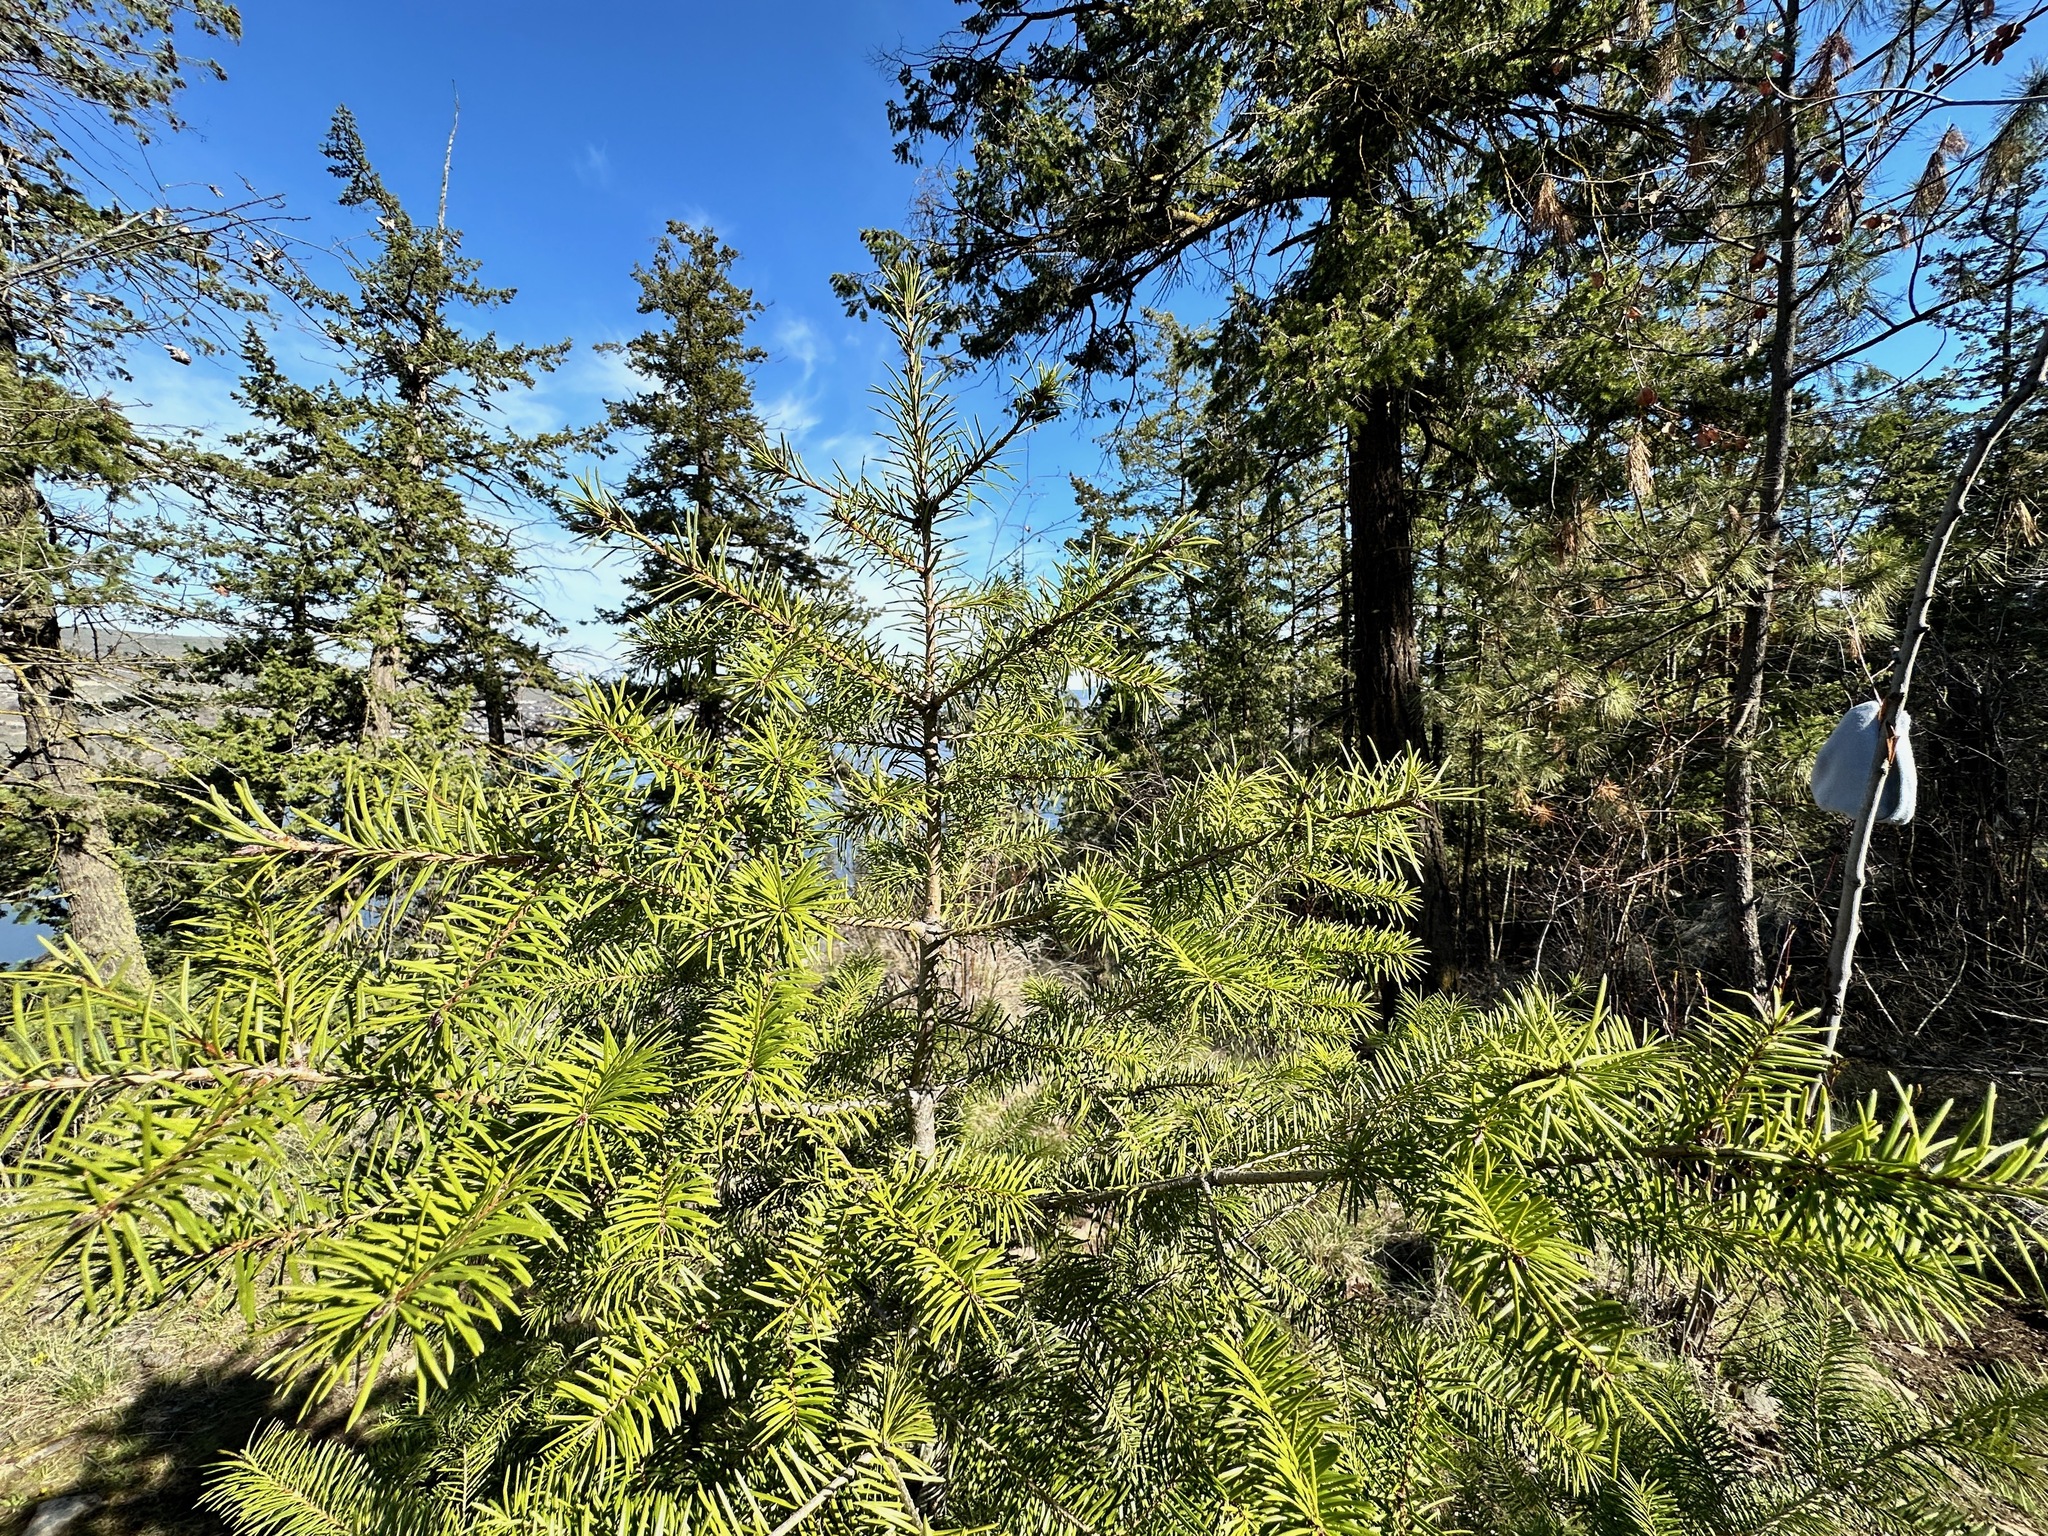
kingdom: Plantae
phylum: Tracheophyta
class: Pinopsida
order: Pinales
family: Pinaceae
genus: Pseudotsuga
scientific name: Pseudotsuga menziesii
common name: Douglas fir
